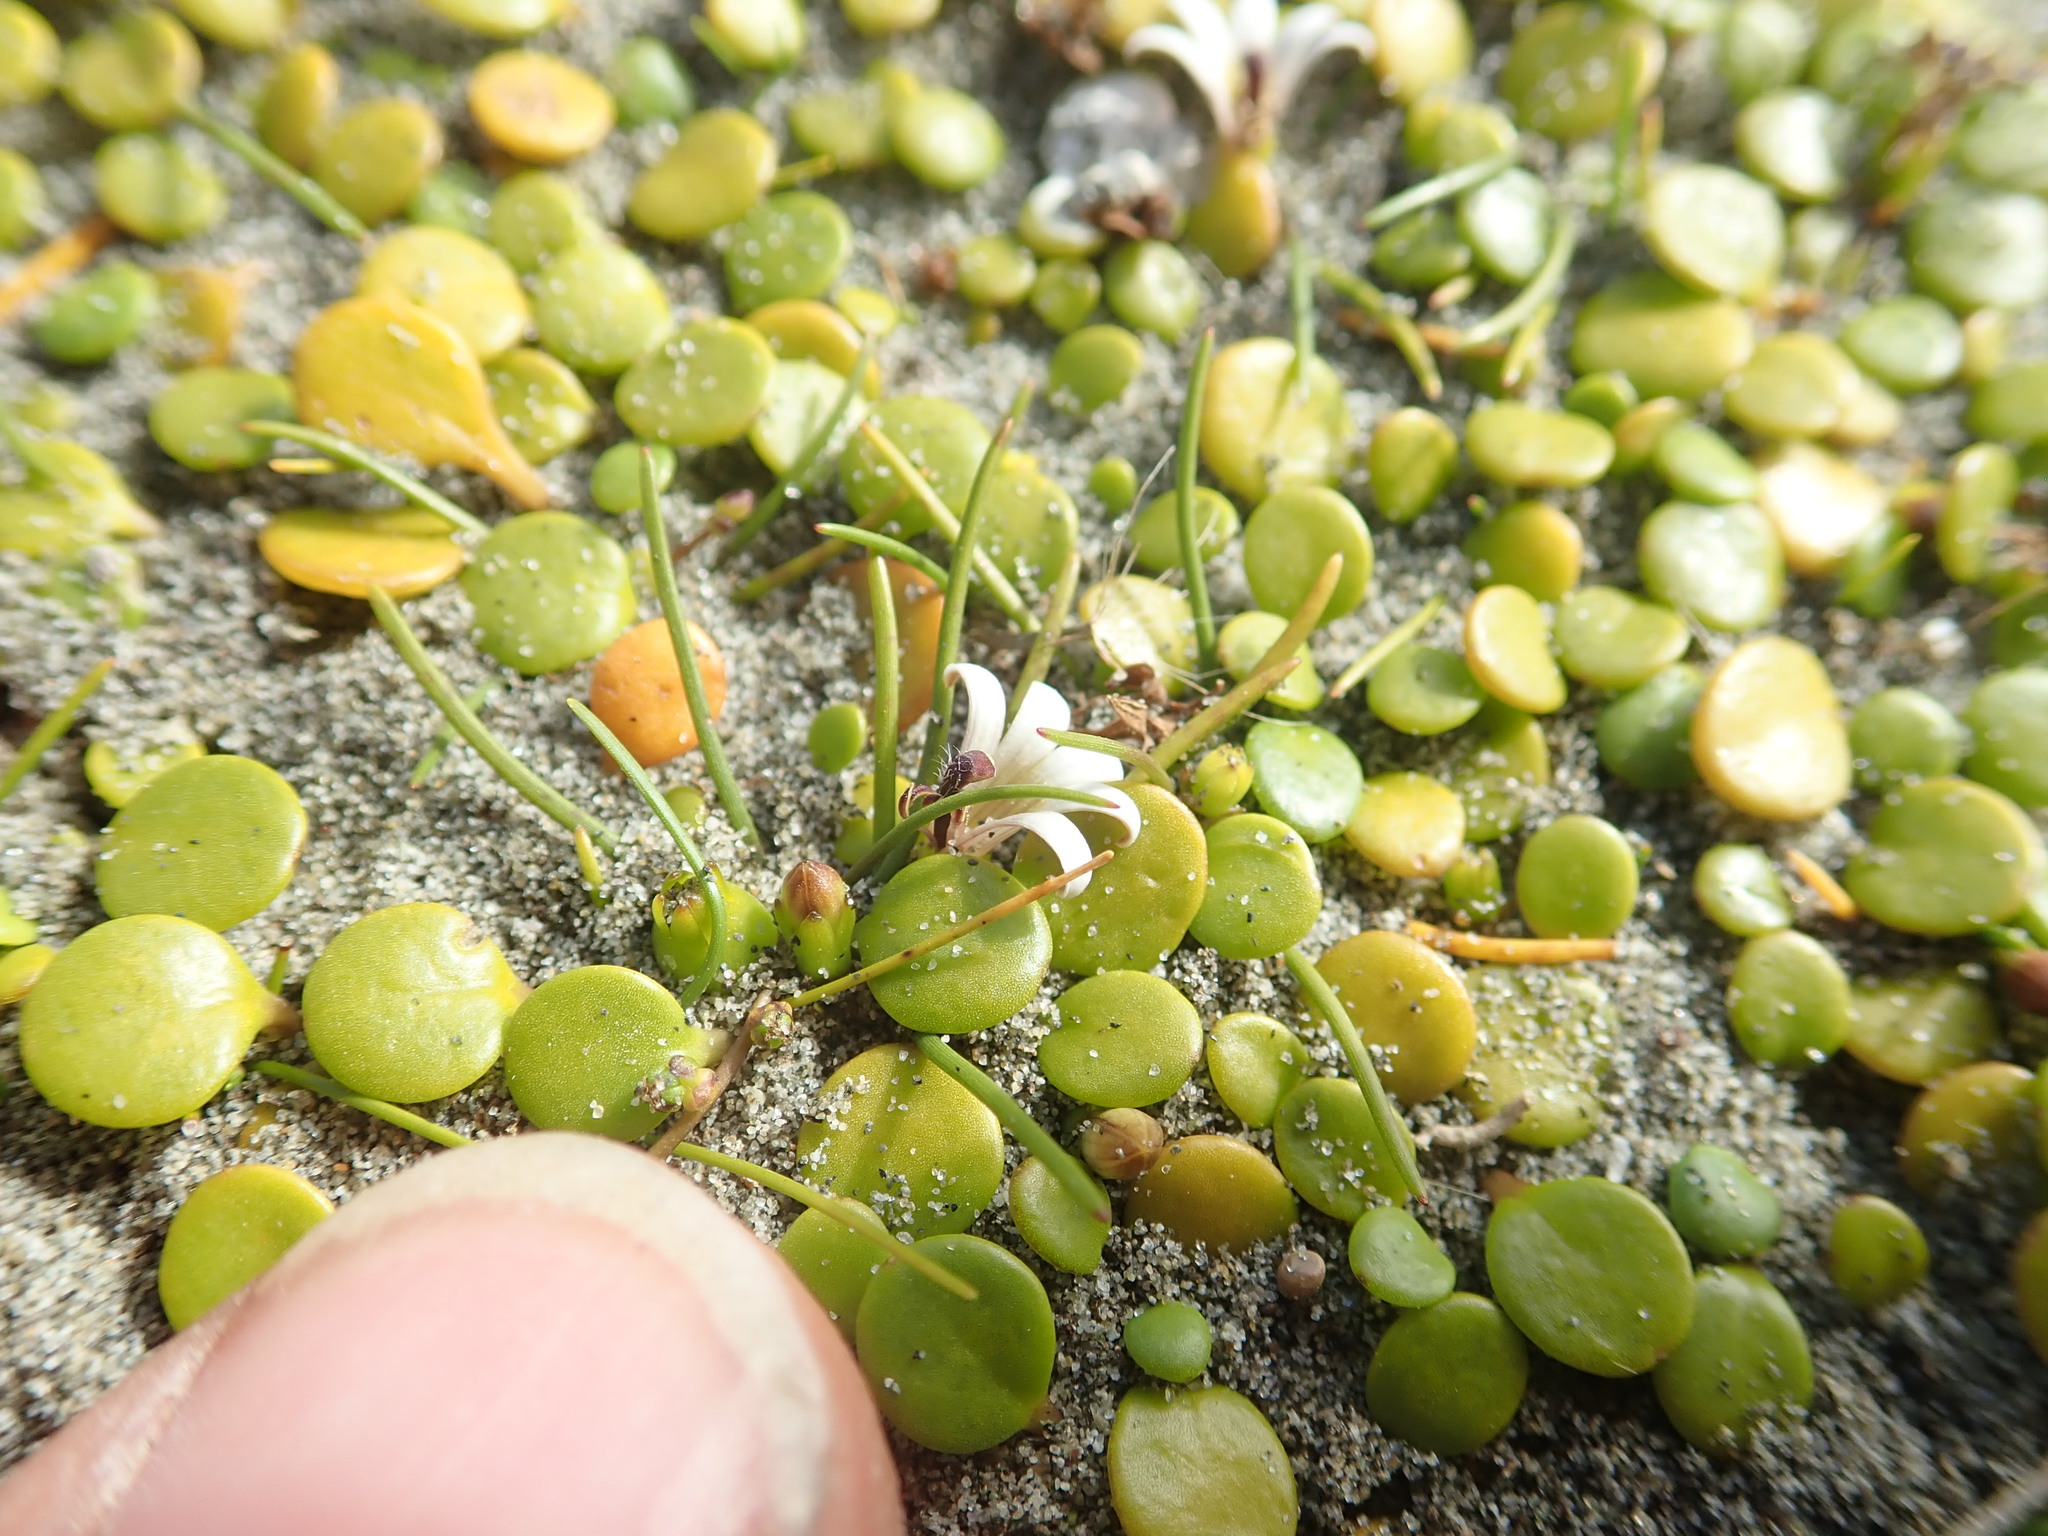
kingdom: Plantae
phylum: Tracheophyta
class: Liliopsida
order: Alismatales
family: Juncaginaceae
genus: Triglochin
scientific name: Triglochin striata
